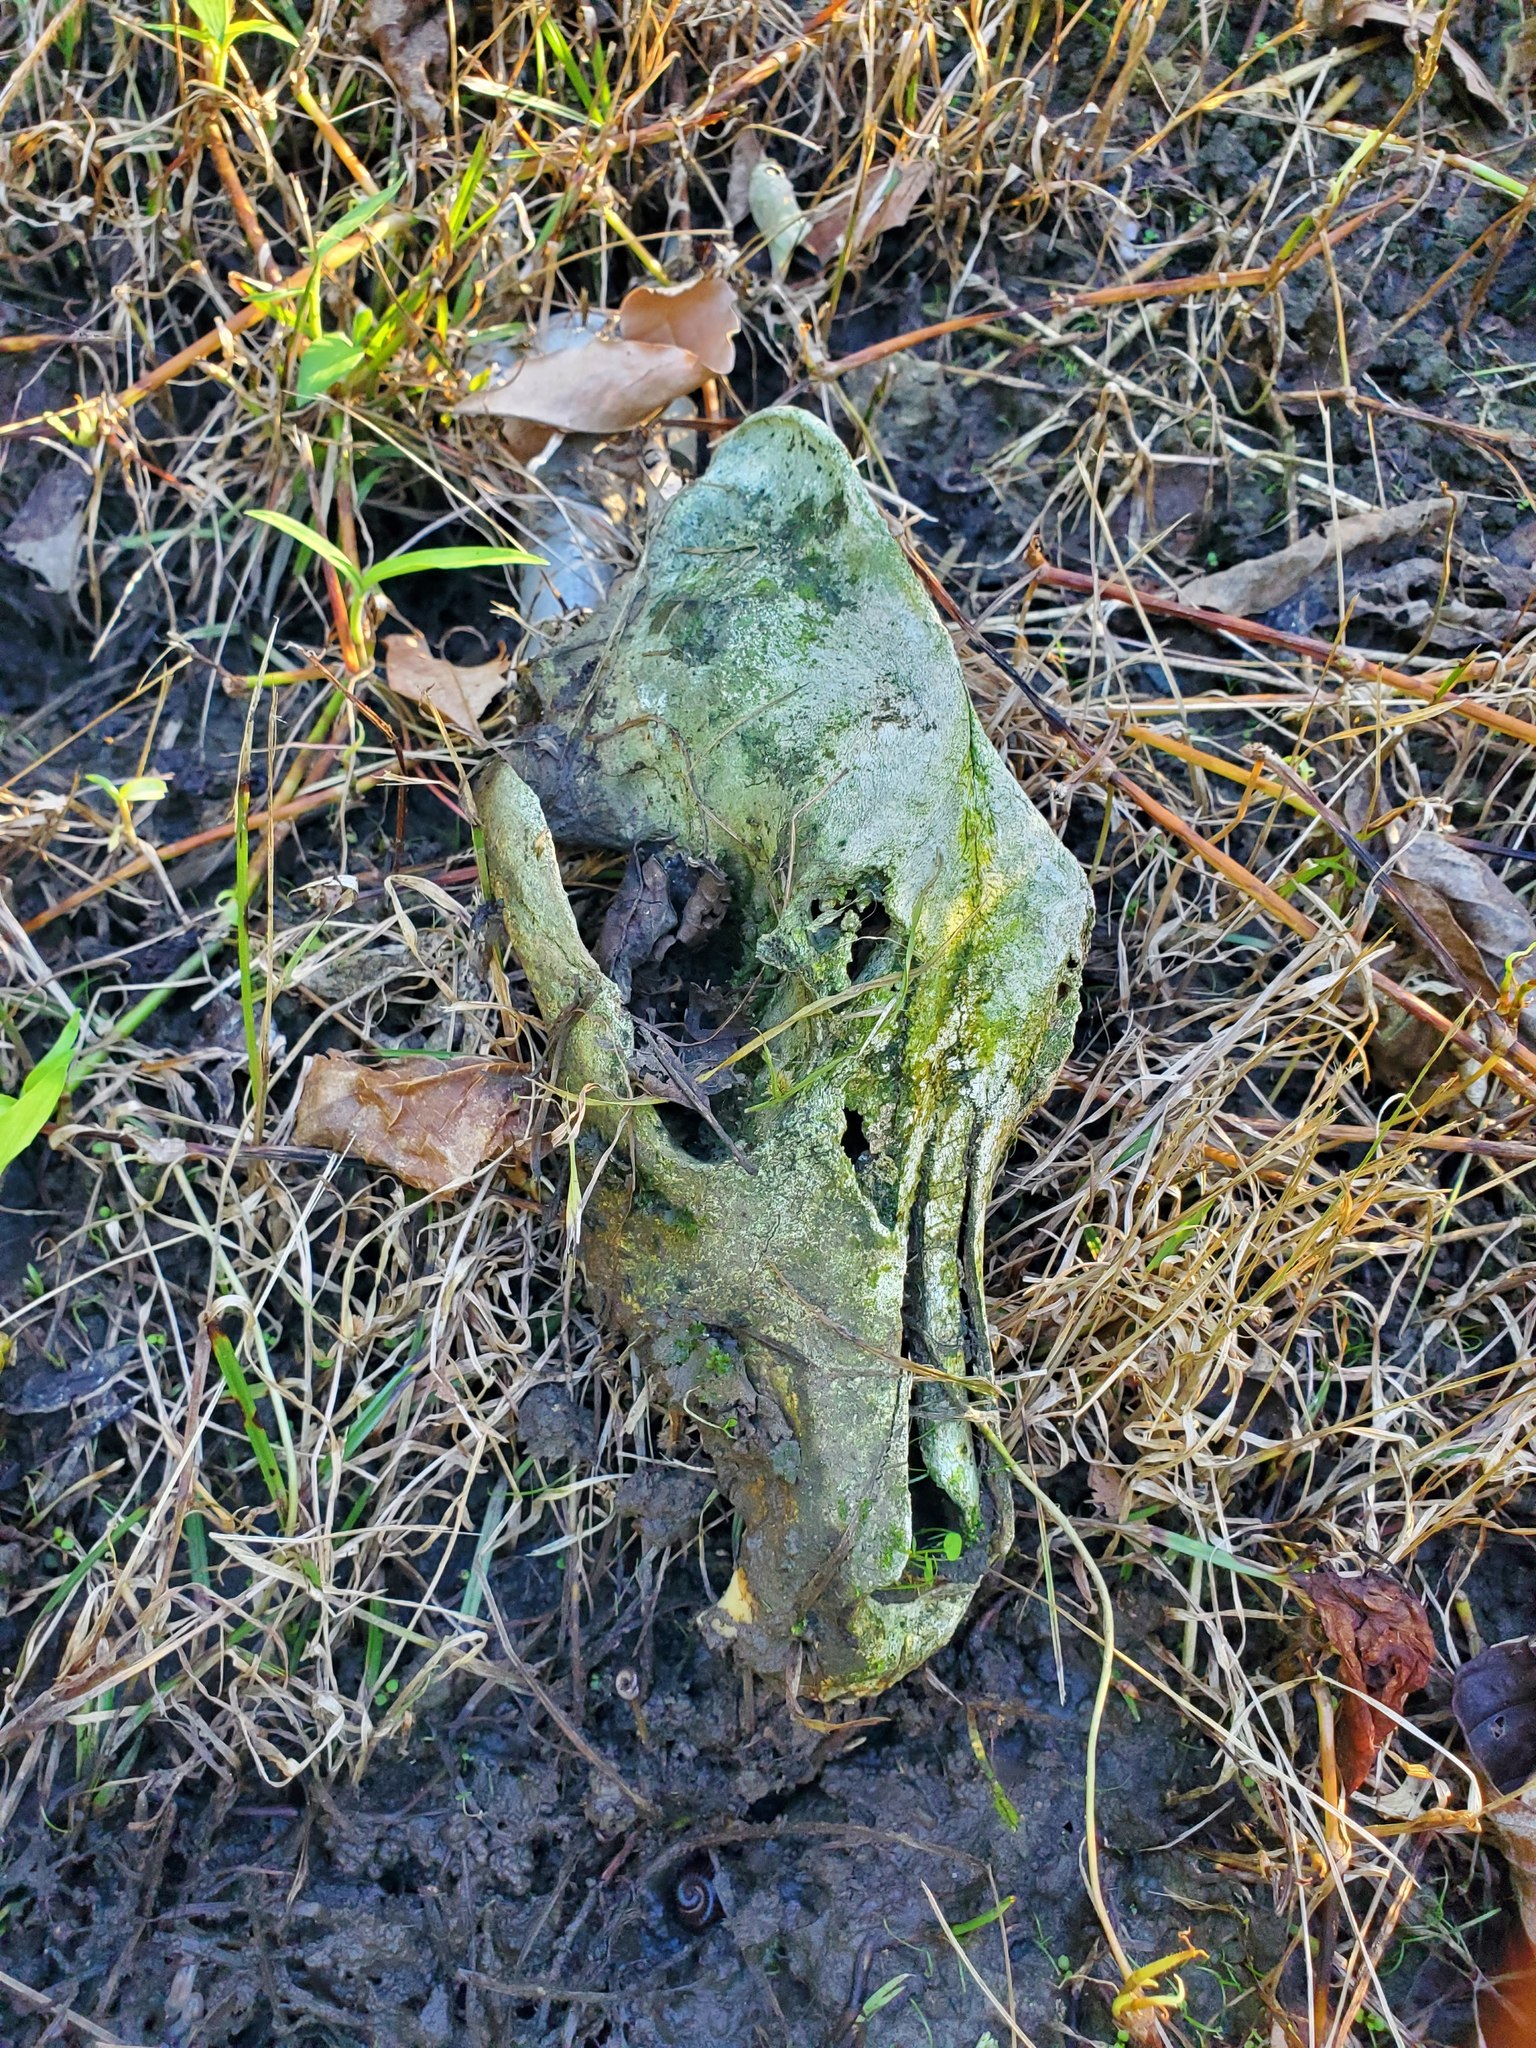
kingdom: Animalia
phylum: Chordata
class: Mammalia
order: Carnivora
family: Canidae
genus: Canis
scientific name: Canis lupus
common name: Gray wolf
